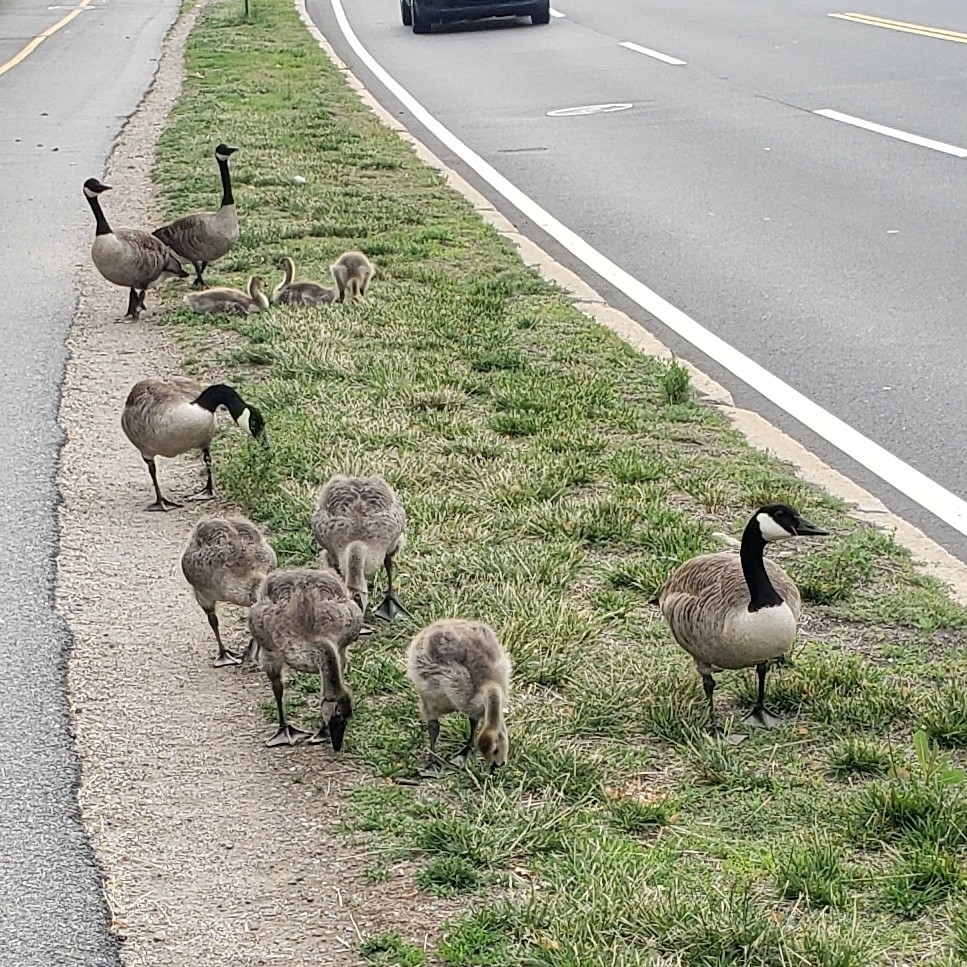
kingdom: Animalia
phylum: Chordata
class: Aves
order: Anseriformes
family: Anatidae
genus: Branta
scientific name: Branta canadensis
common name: Canada goose
